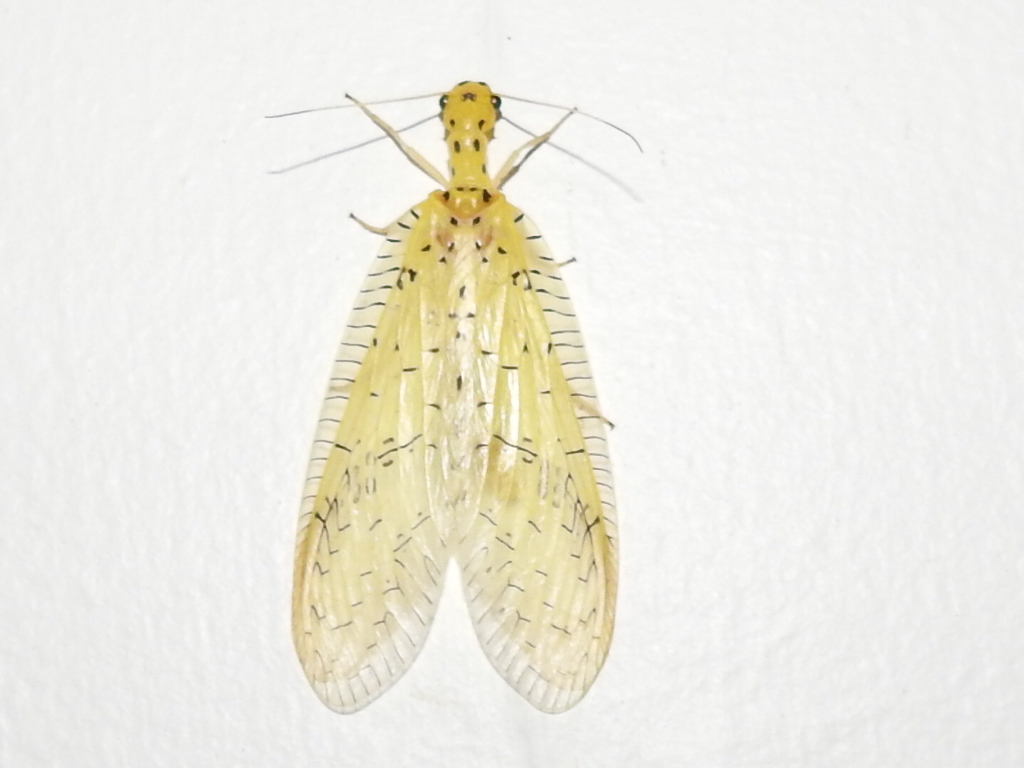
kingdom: Animalia
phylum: Arthropoda
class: Insecta
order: Megaloptera
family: Corydalidae
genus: Chloronia
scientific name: Chloronia mirifica
